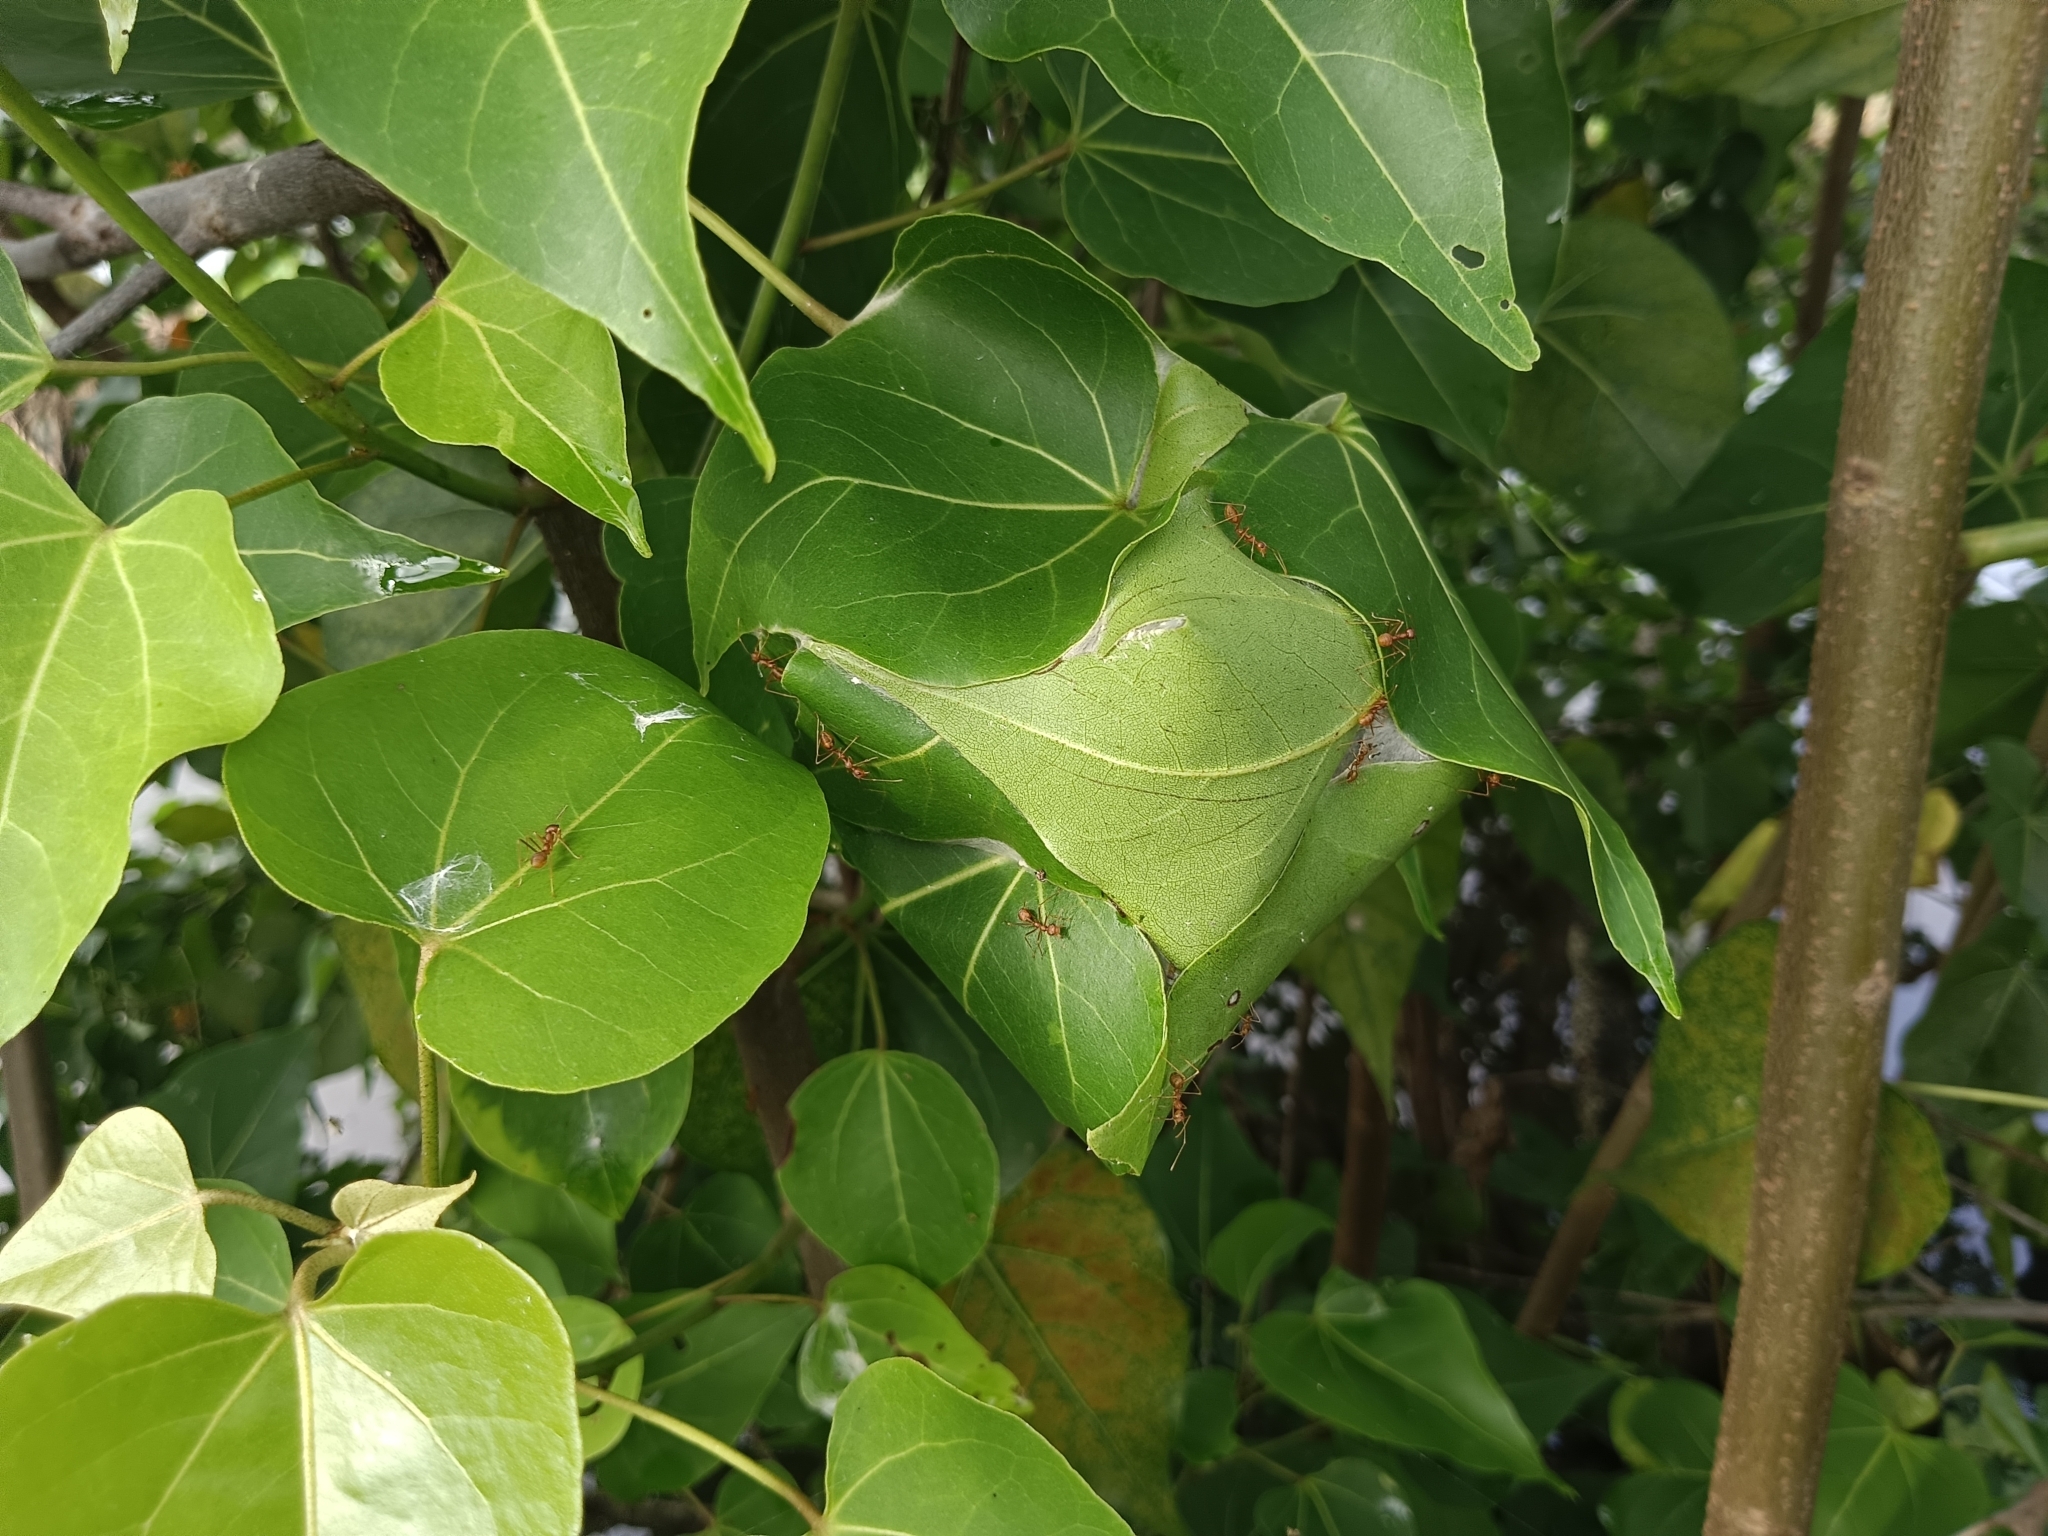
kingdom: Animalia
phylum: Arthropoda
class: Insecta
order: Hymenoptera
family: Formicidae
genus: Oecophylla
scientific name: Oecophylla smaragdina
